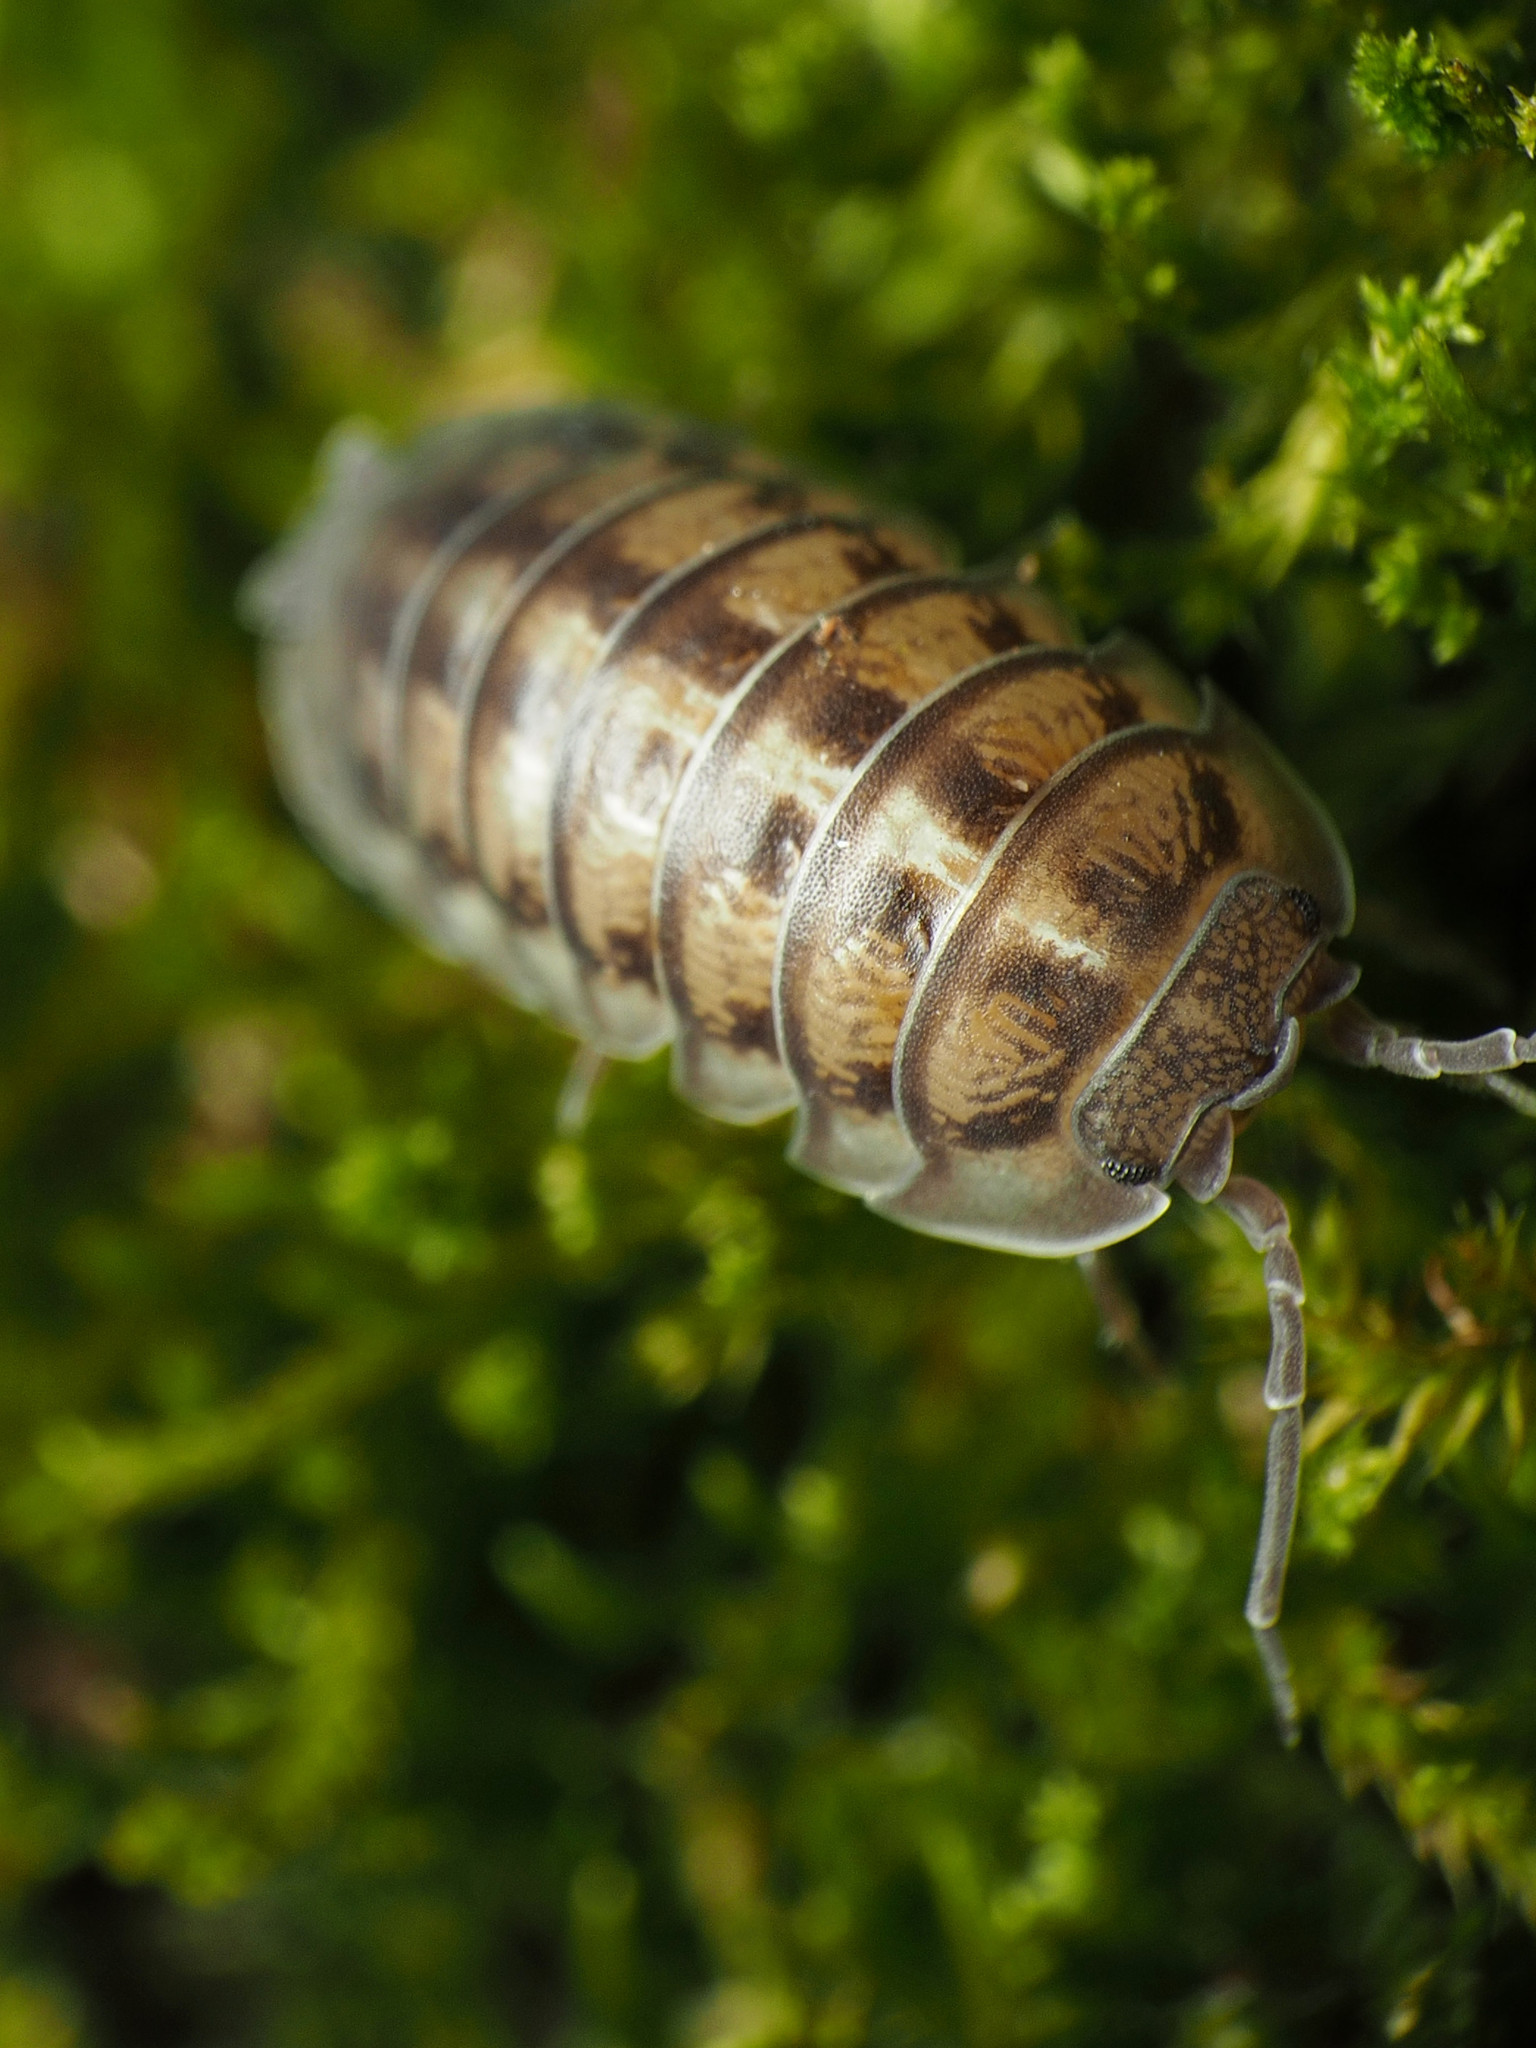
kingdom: Animalia
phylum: Arthropoda
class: Malacostraca
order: Isopoda
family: Armadillidiidae
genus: Armadillidium
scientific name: Armadillidium nasatum
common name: Isopod
